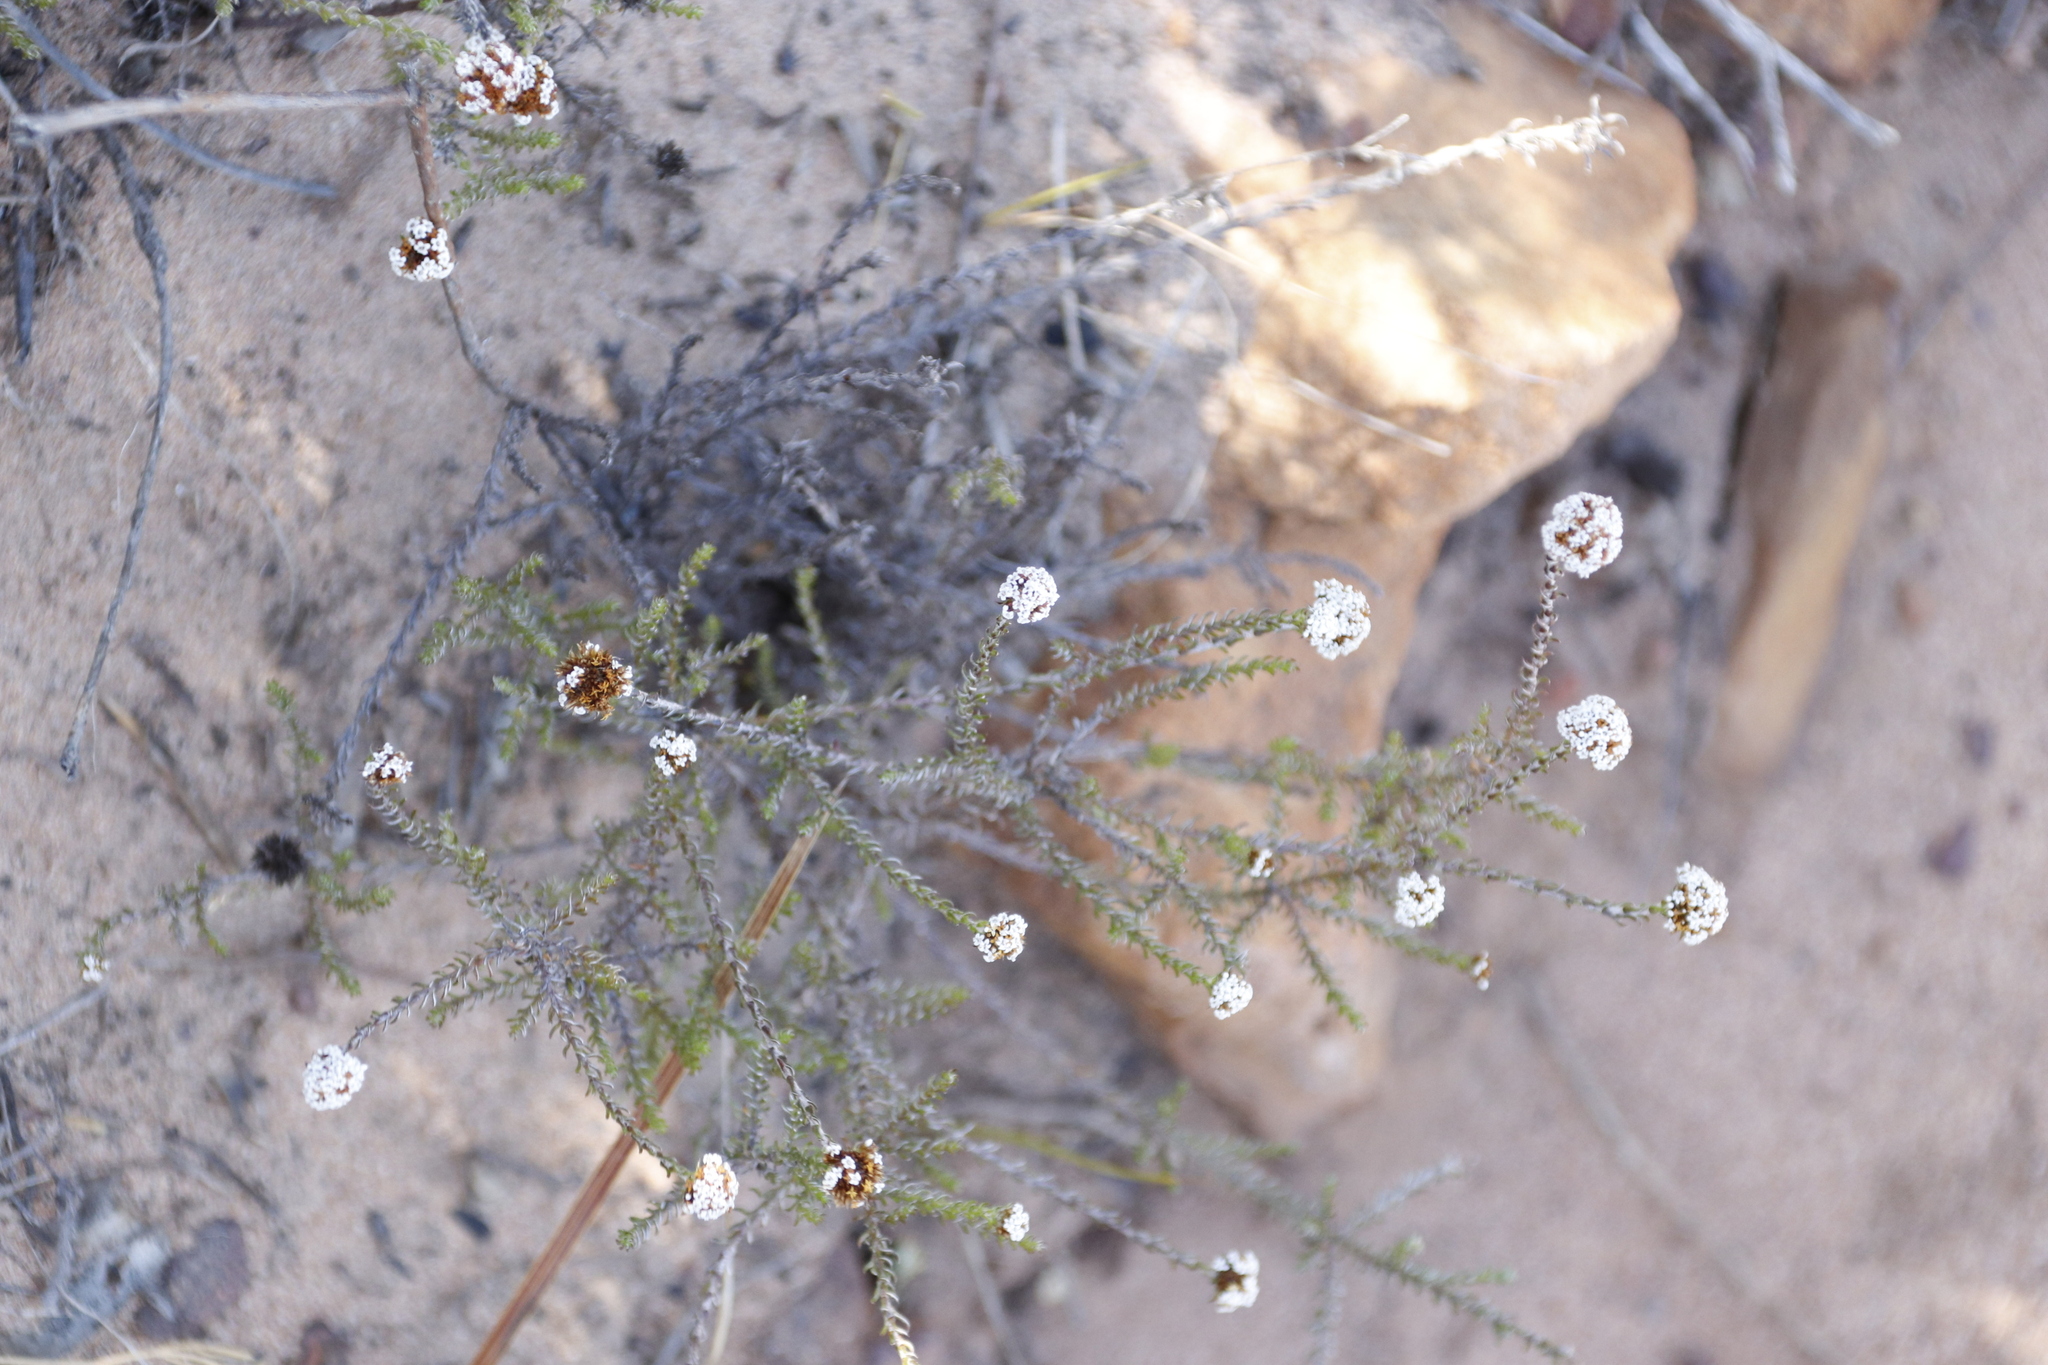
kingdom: Plantae
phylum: Tracheophyta
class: Magnoliopsida
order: Asterales
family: Asteraceae
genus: Stoebe
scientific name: Stoebe capitata
